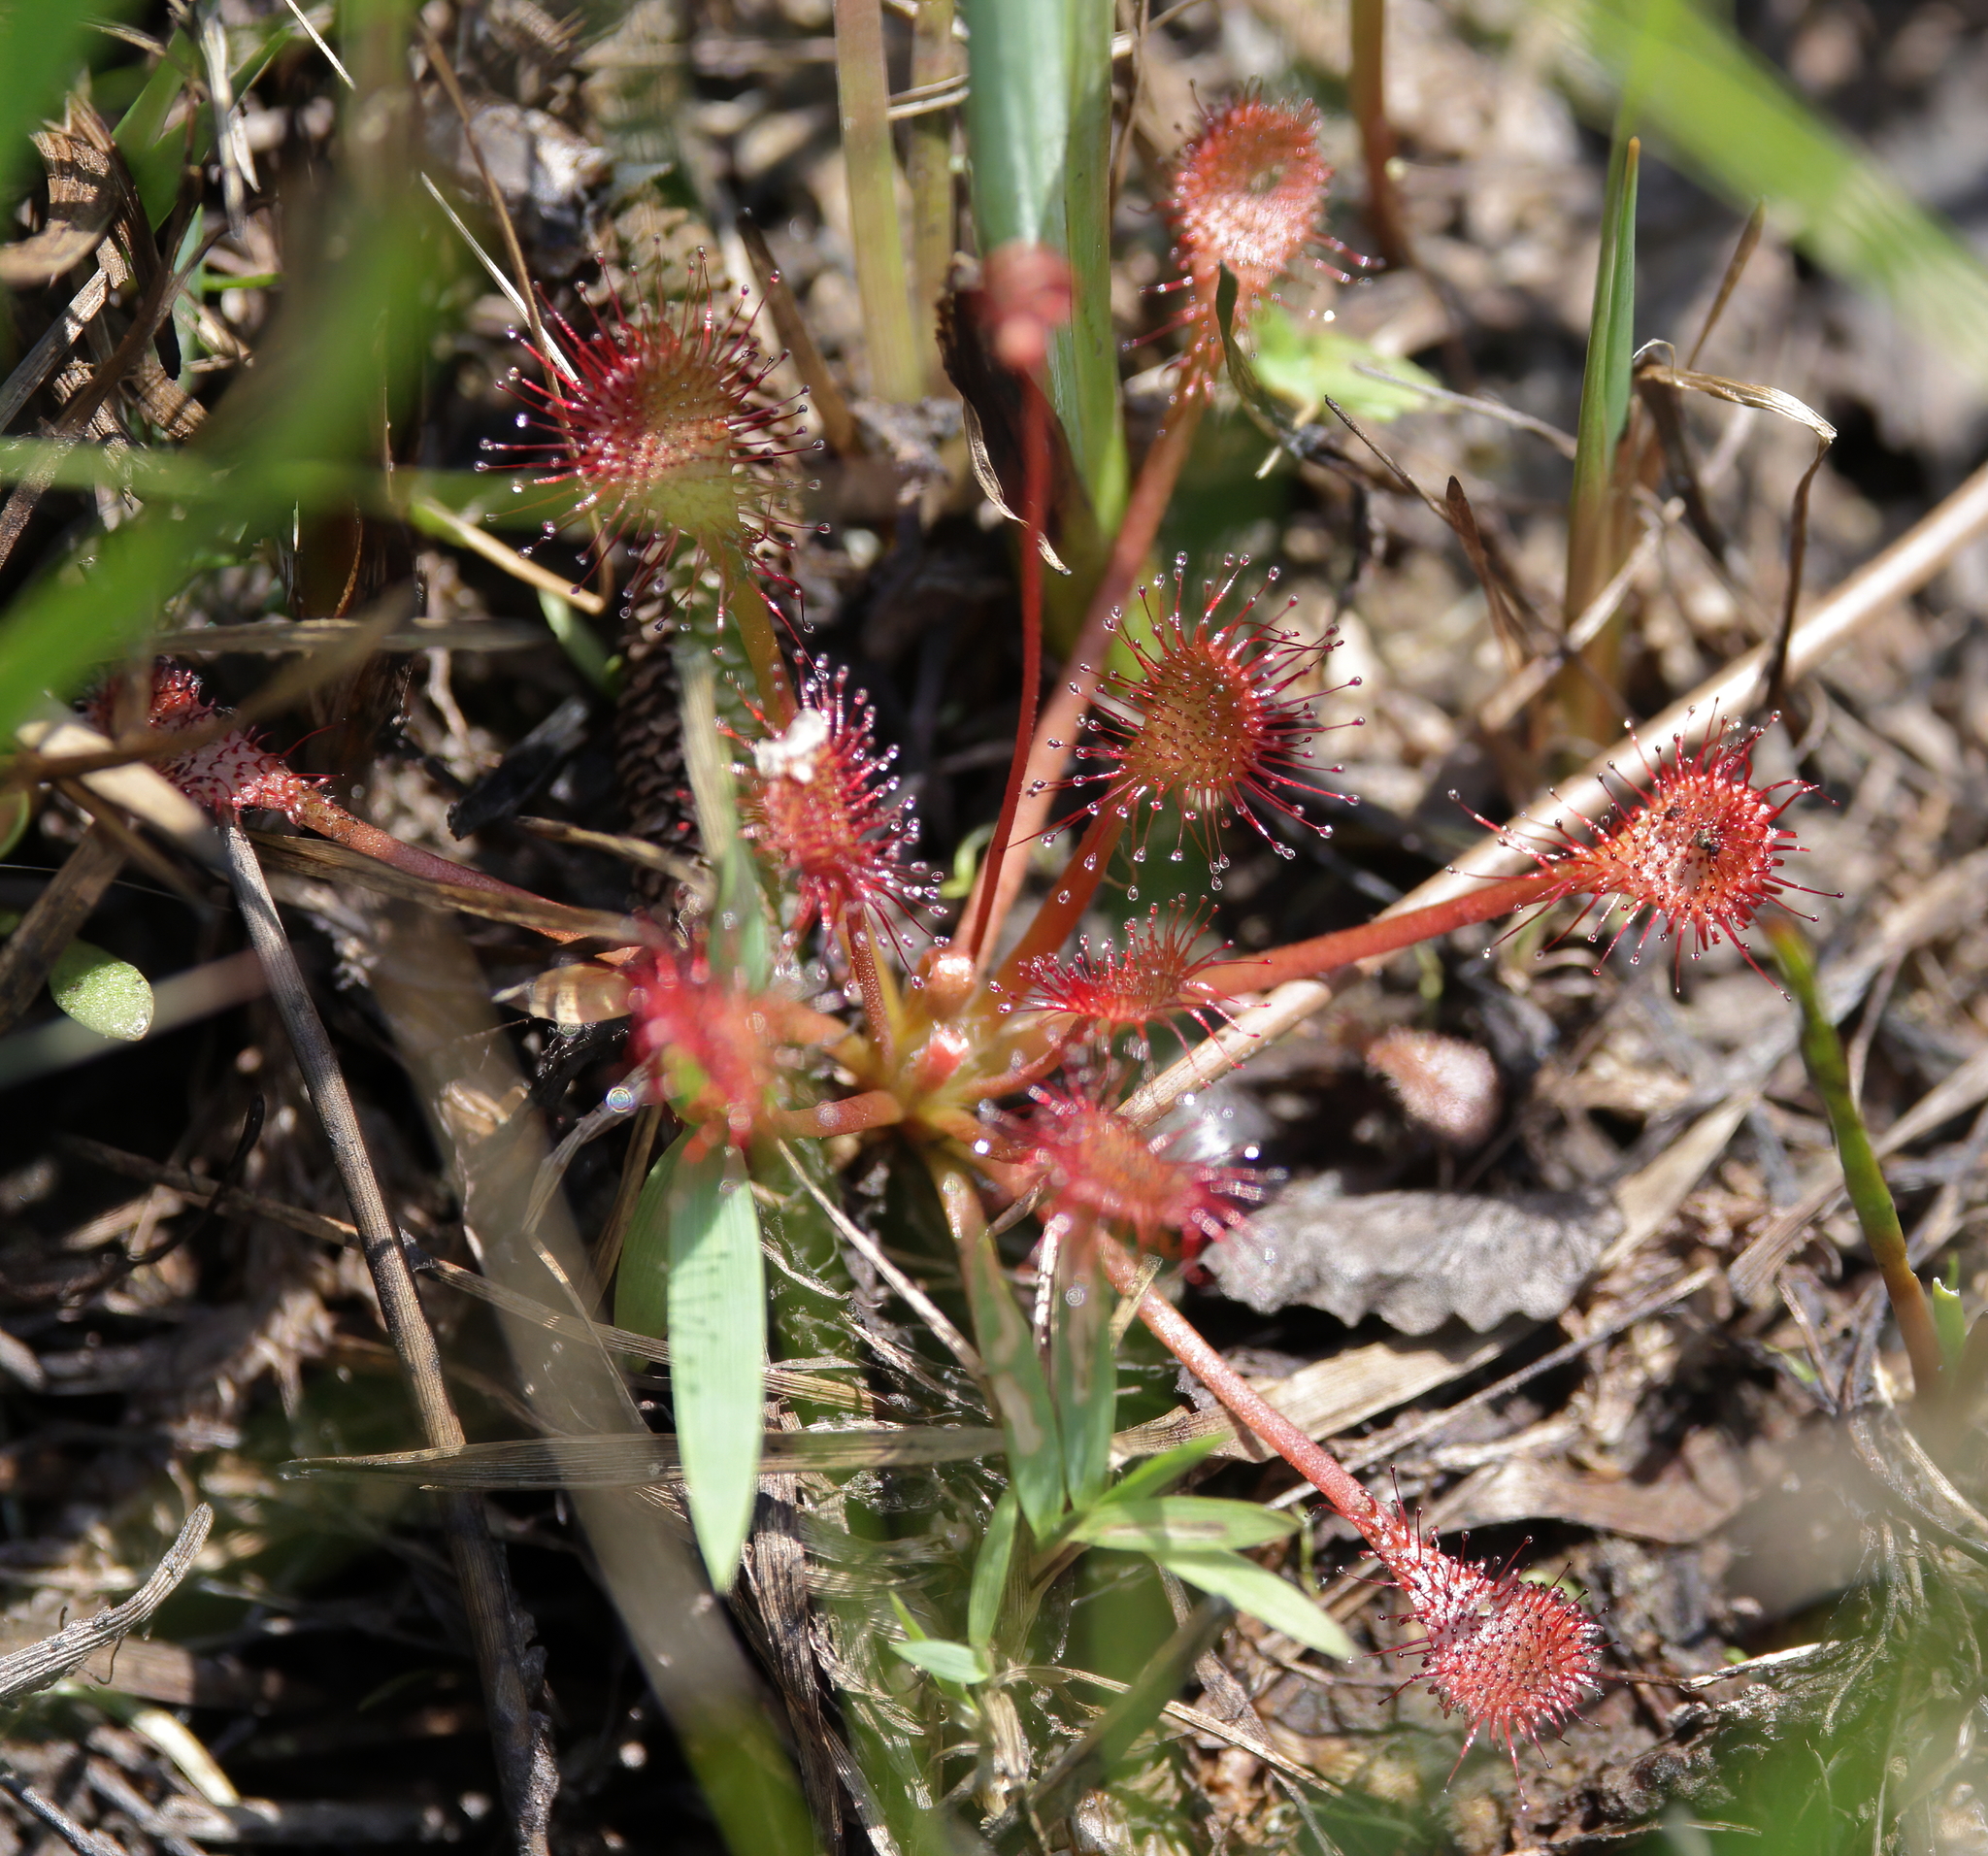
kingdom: Plantae
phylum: Tracheophyta
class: Magnoliopsida
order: Caryophyllales
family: Droseraceae
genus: Drosera
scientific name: Drosera capillaris
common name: Pink sundew
